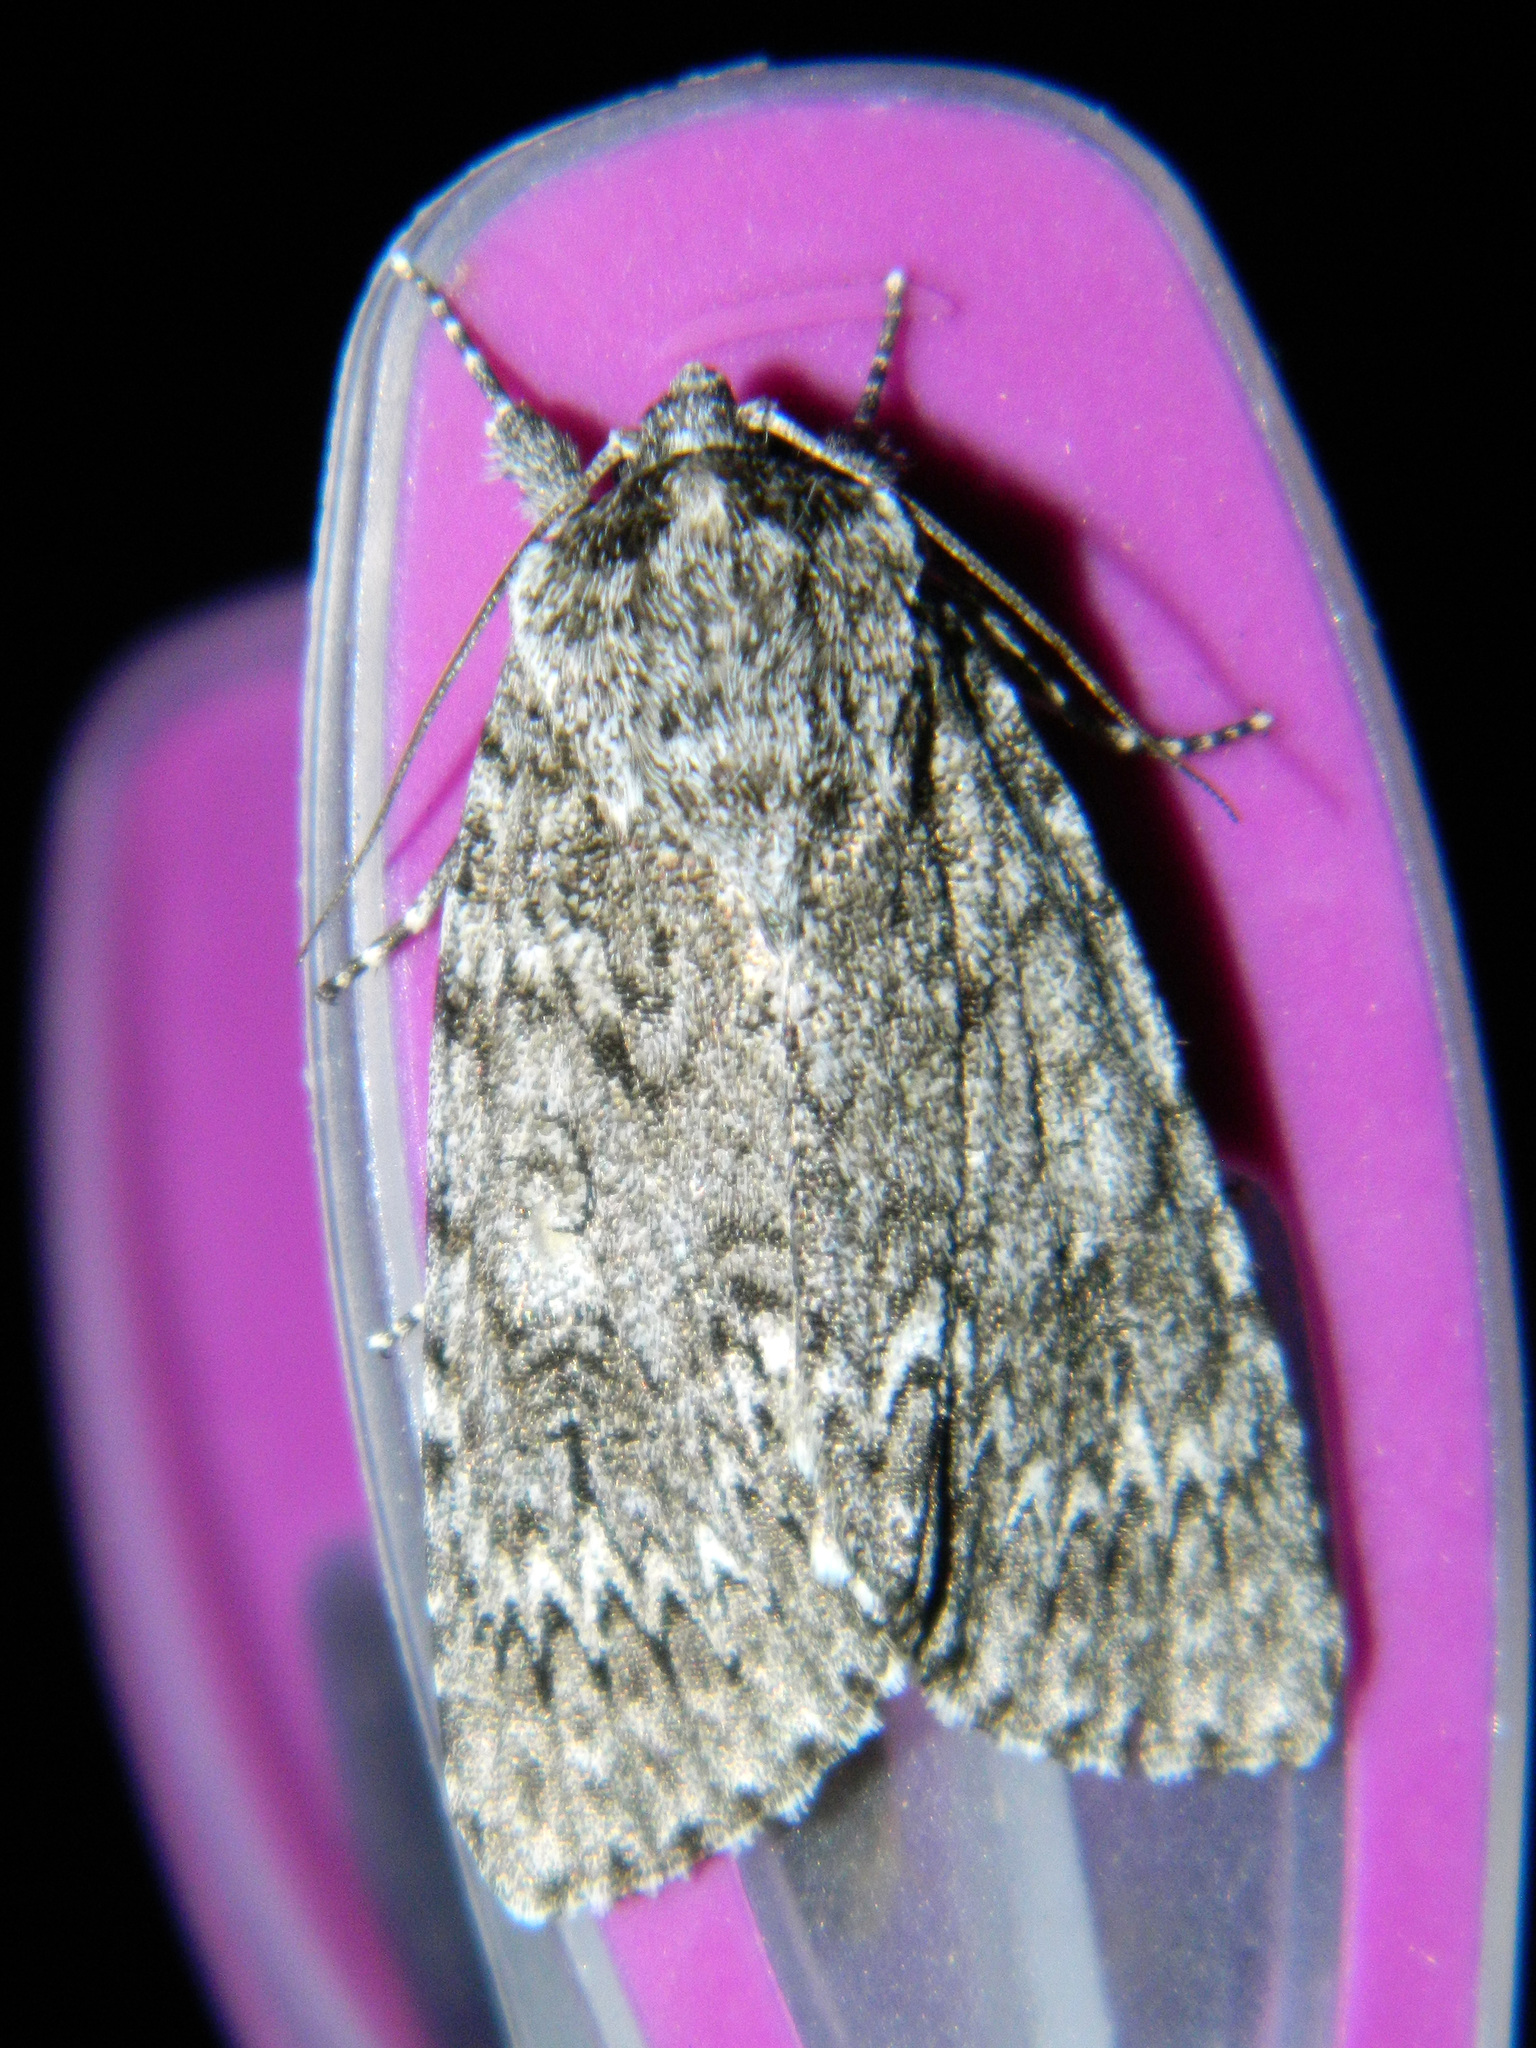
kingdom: Animalia
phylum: Arthropoda
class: Insecta
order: Lepidoptera
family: Noctuidae
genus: Acronicta
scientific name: Acronicta impleta
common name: Powdered dagger
